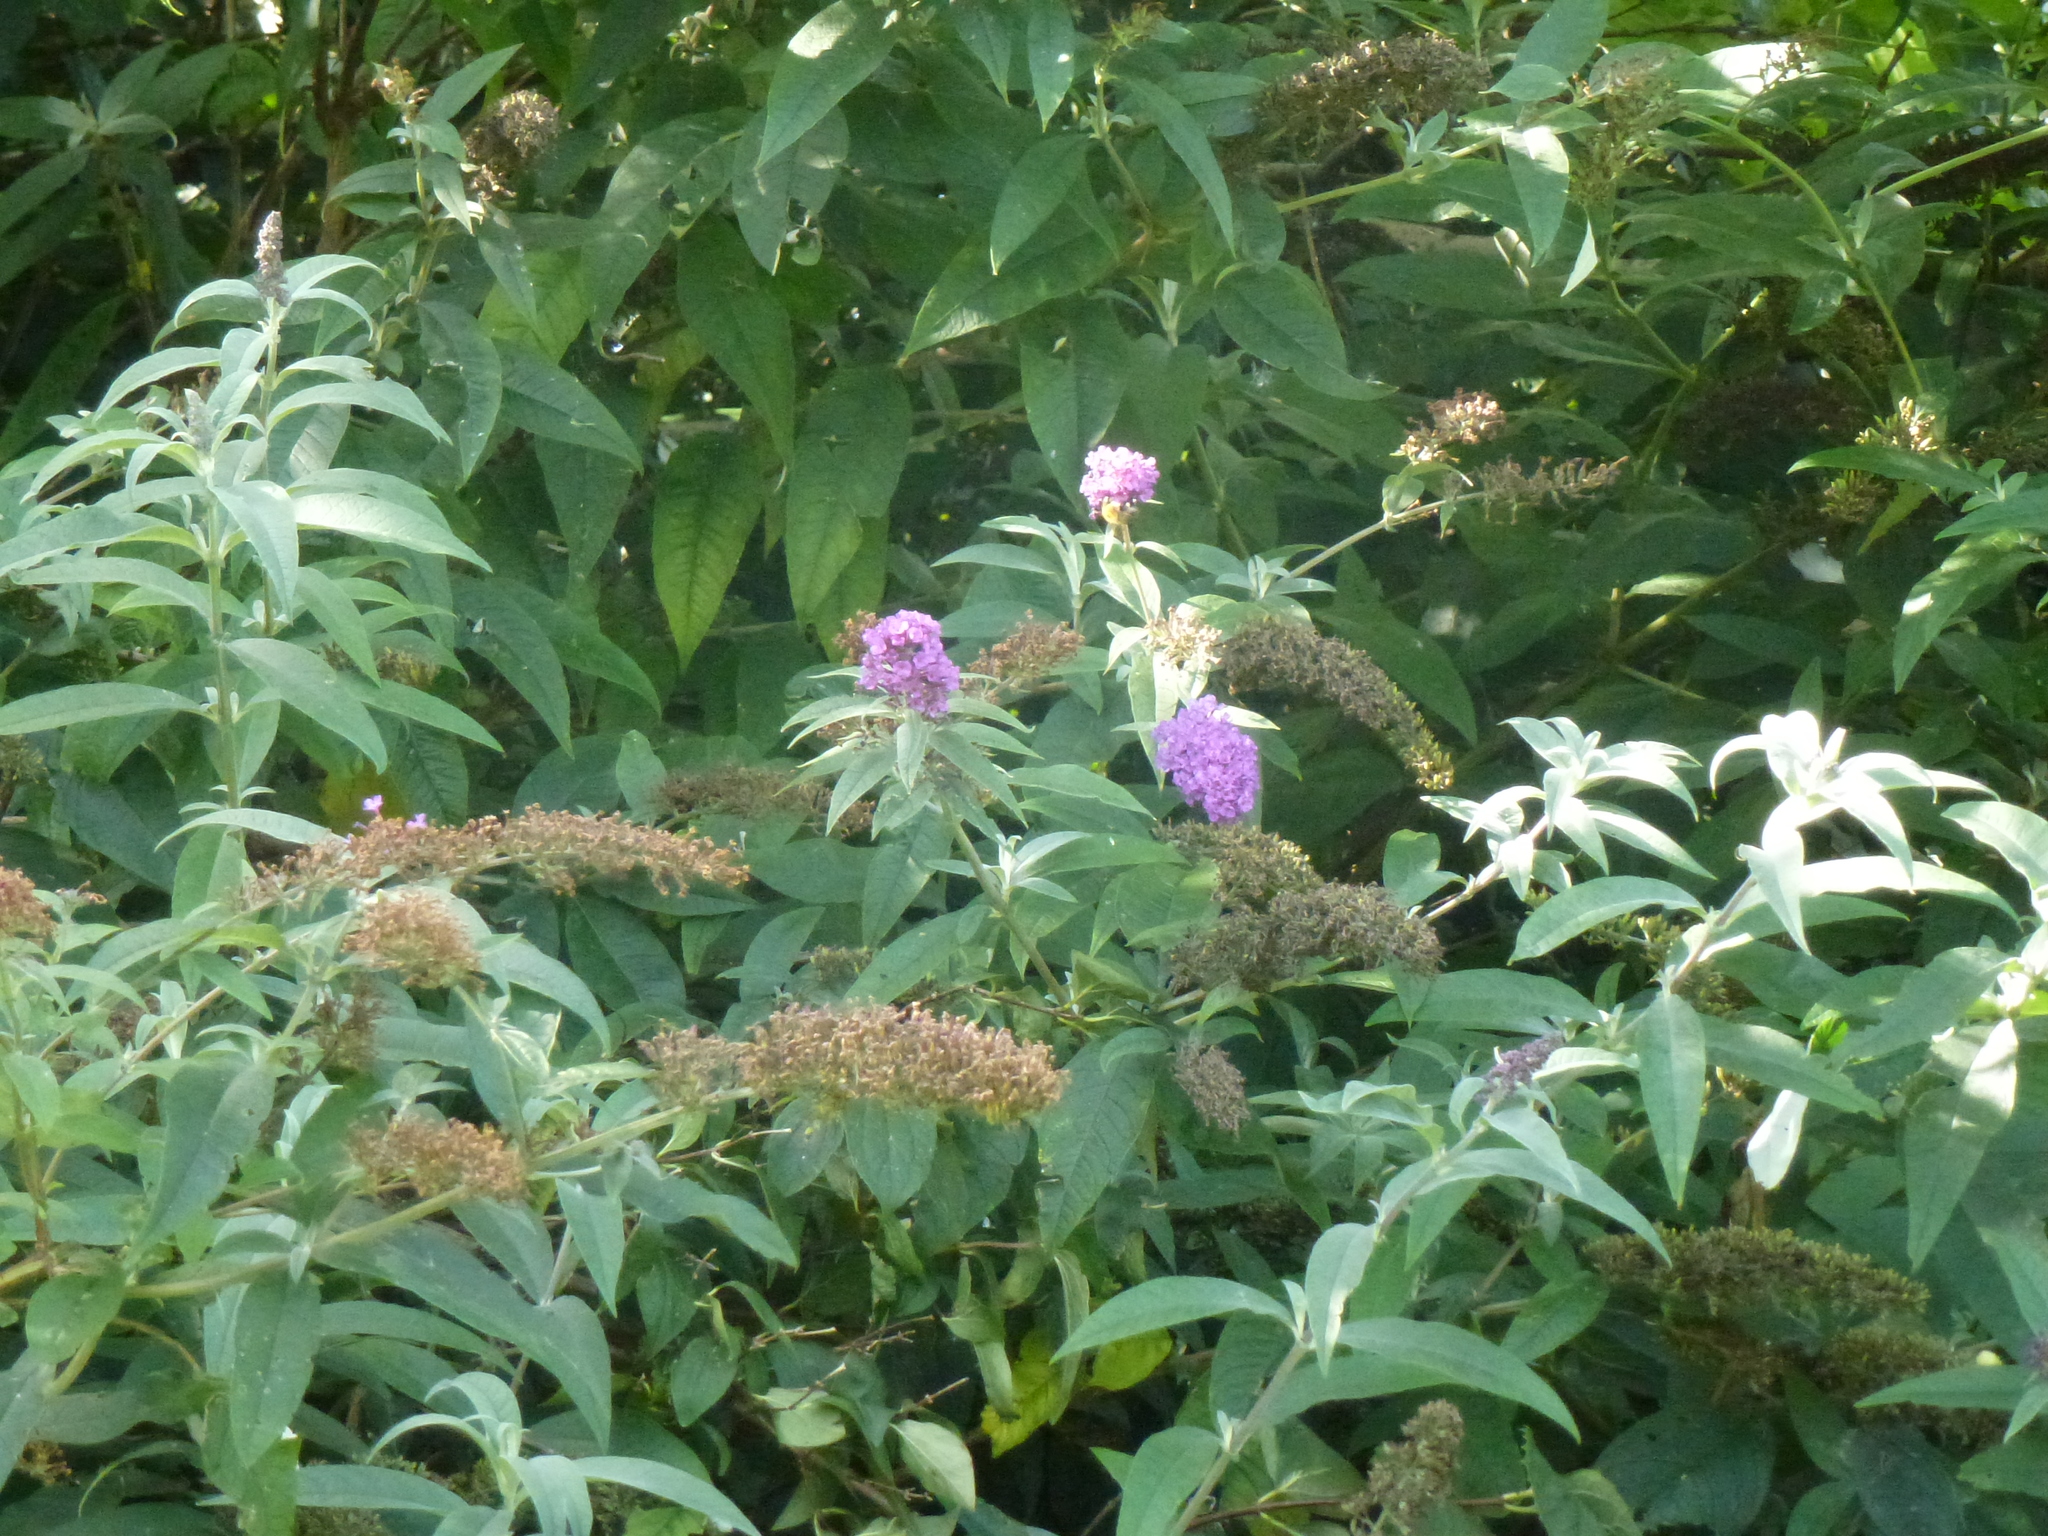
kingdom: Plantae
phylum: Tracheophyta
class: Magnoliopsida
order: Lamiales
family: Scrophulariaceae
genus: Buddleja
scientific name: Buddleja davidii
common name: Butterfly-bush
